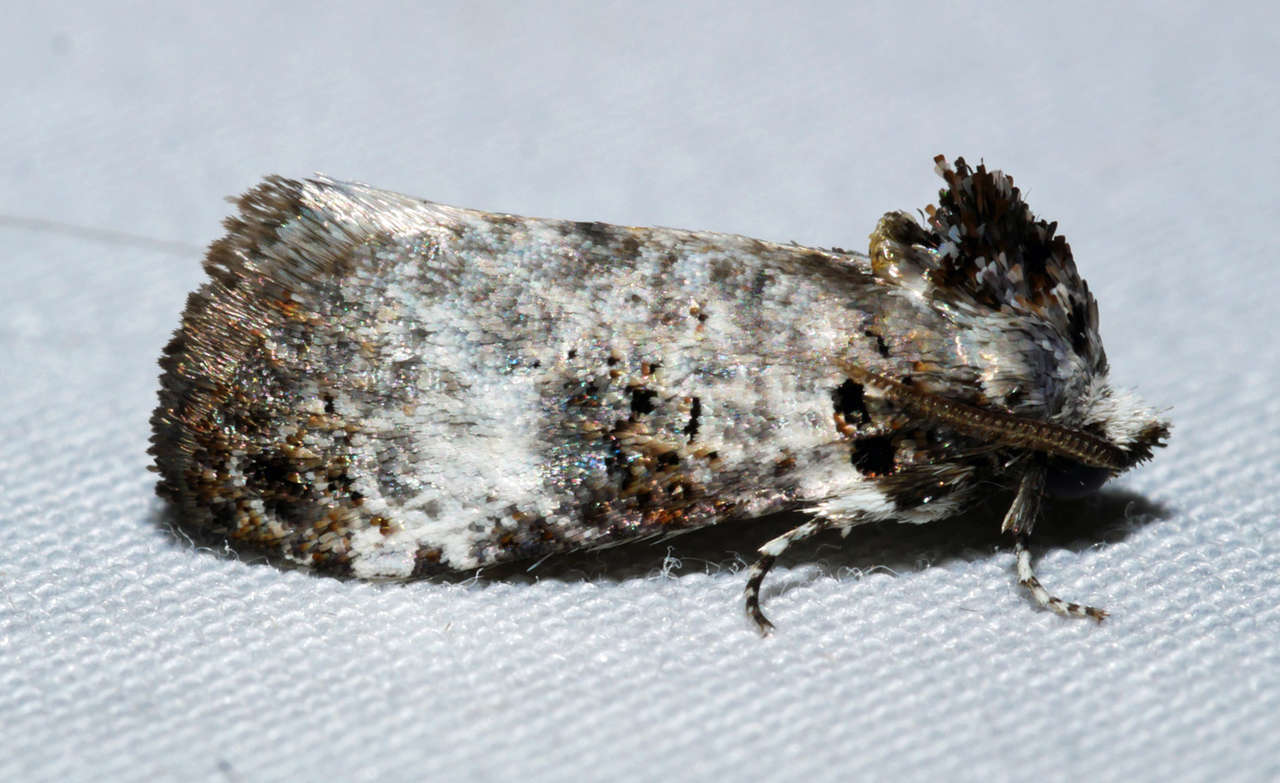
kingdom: Animalia
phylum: Arthropoda
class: Insecta
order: Lepidoptera
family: Cossidae
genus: Idioses
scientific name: Idioses littleri
